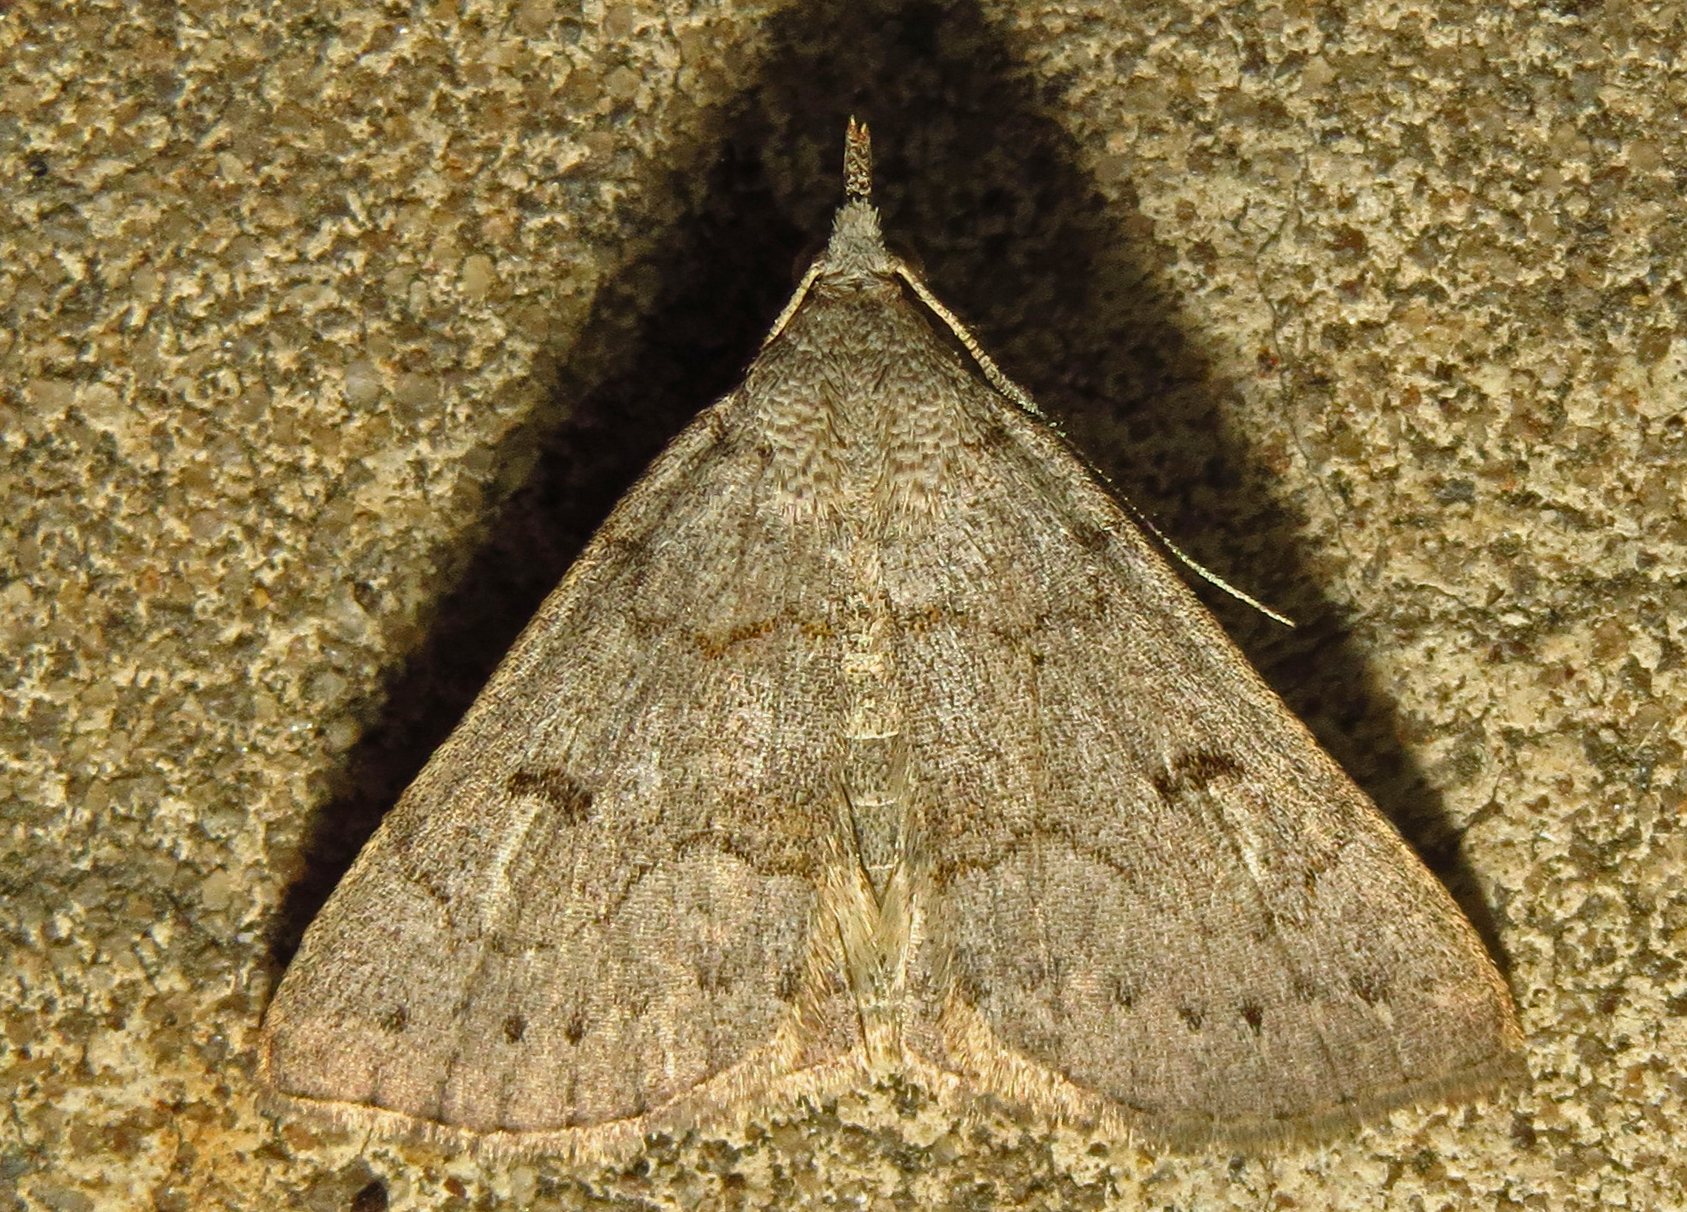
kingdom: Animalia
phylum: Arthropoda
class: Insecta
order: Lepidoptera
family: Erebidae
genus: Macrochilo
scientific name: Macrochilo morbidalis
